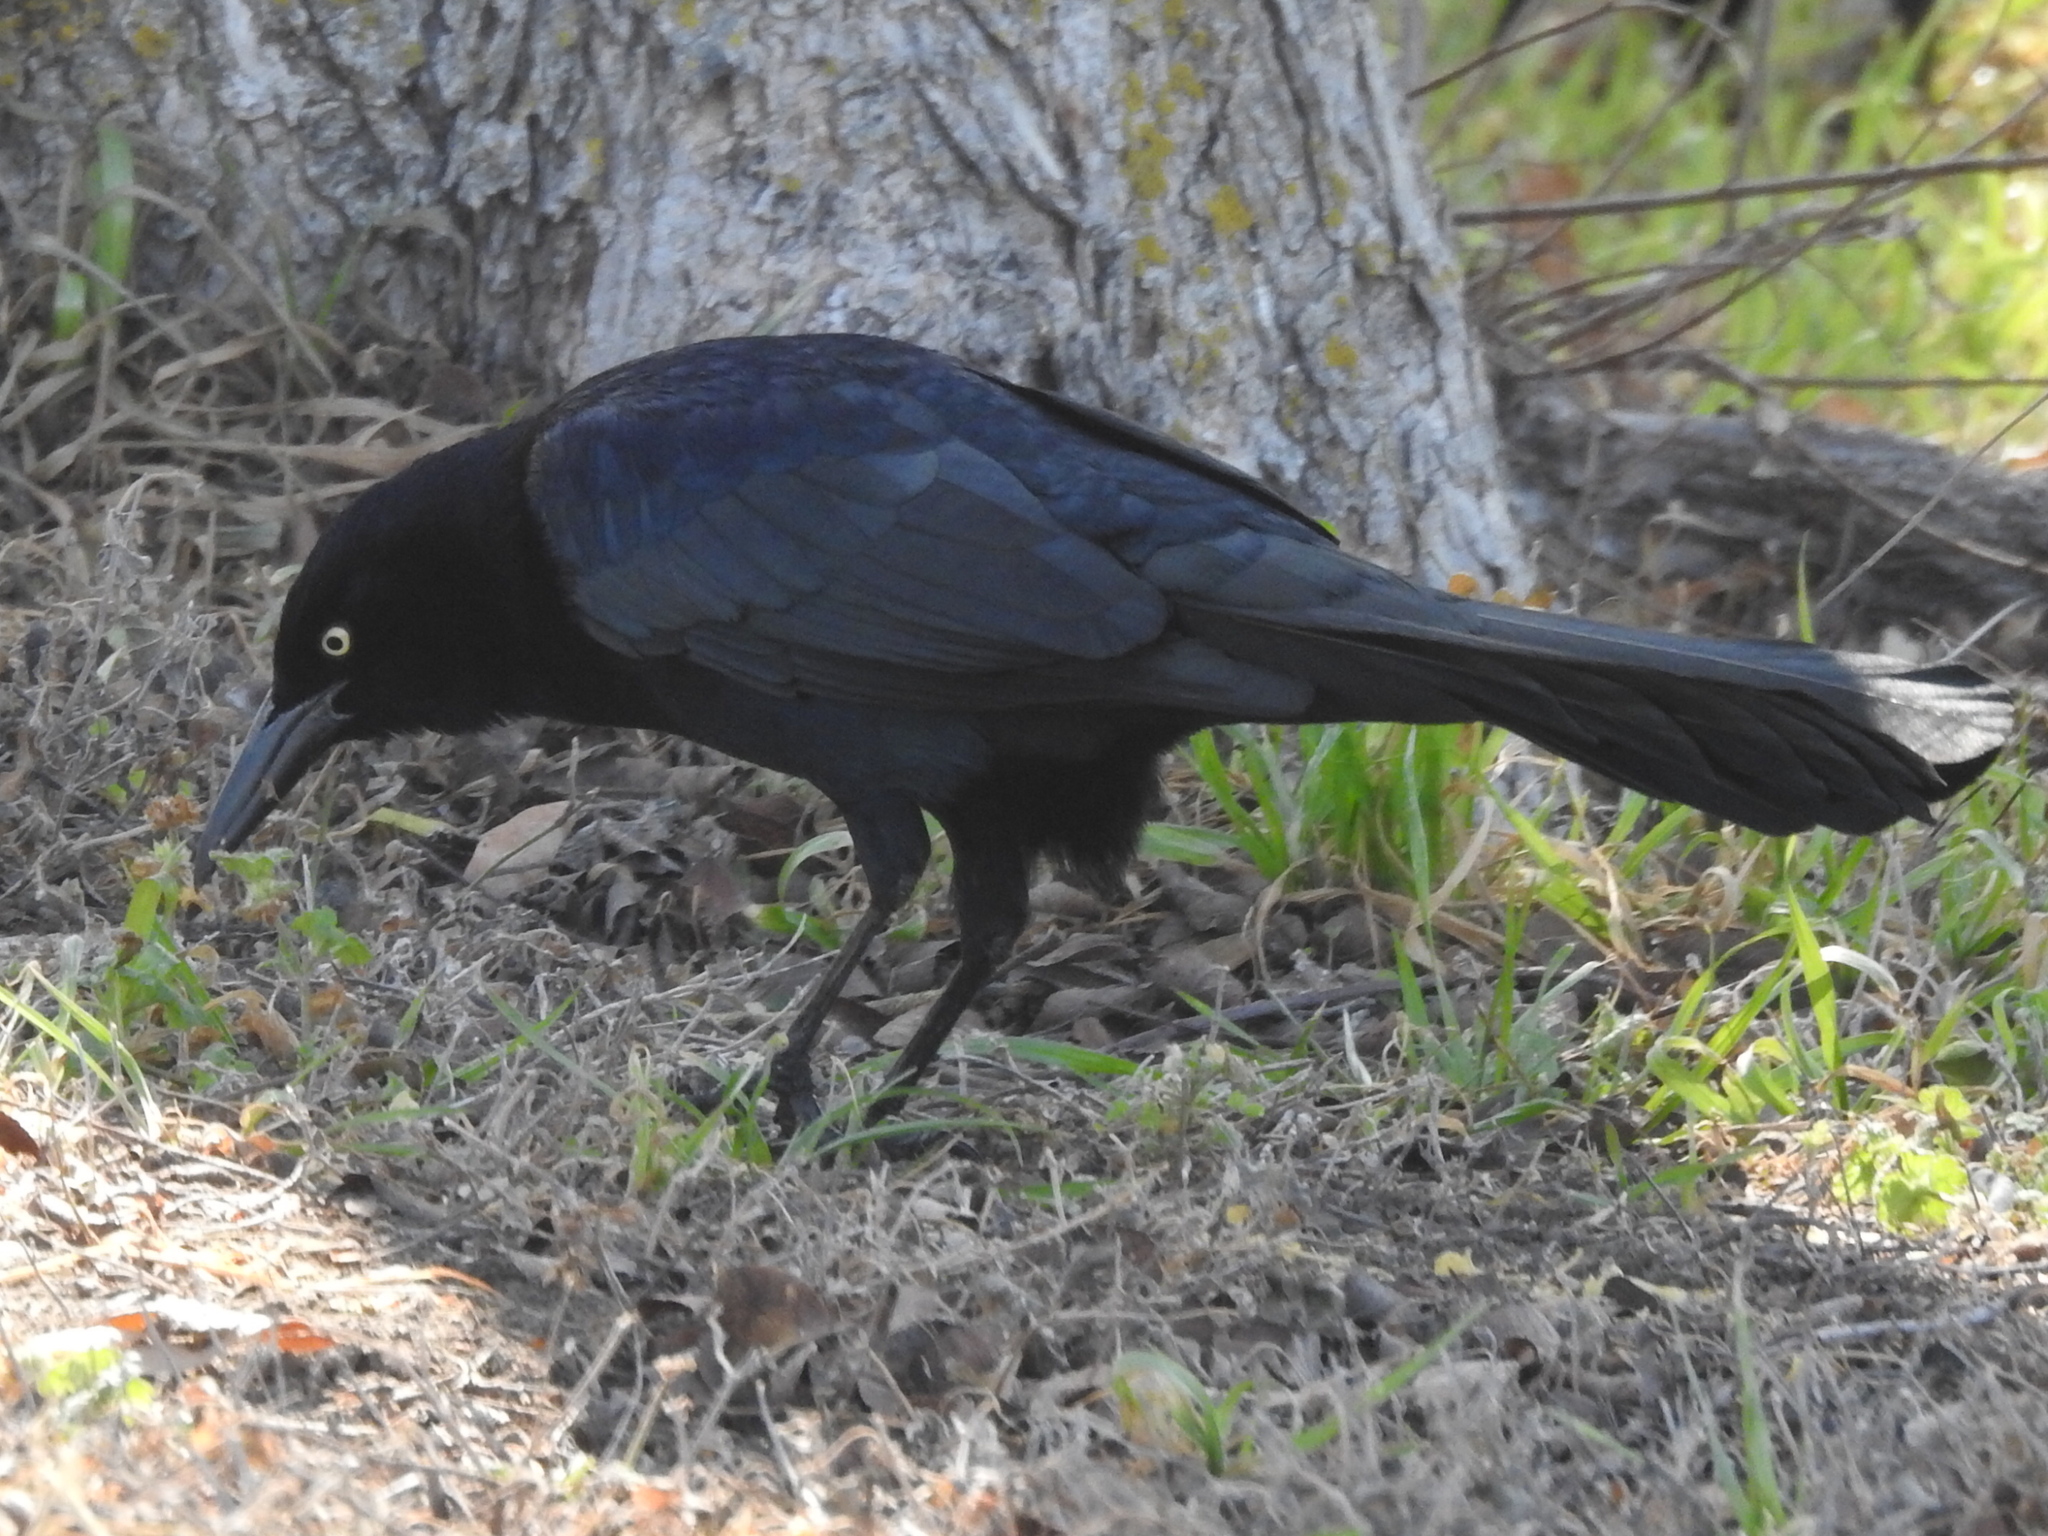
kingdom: Animalia
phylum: Chordata
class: Aves
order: Passeriformes
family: Icteridae
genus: Quiscalus
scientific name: Quiscalus mexicanus
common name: Great-tailed grackle
